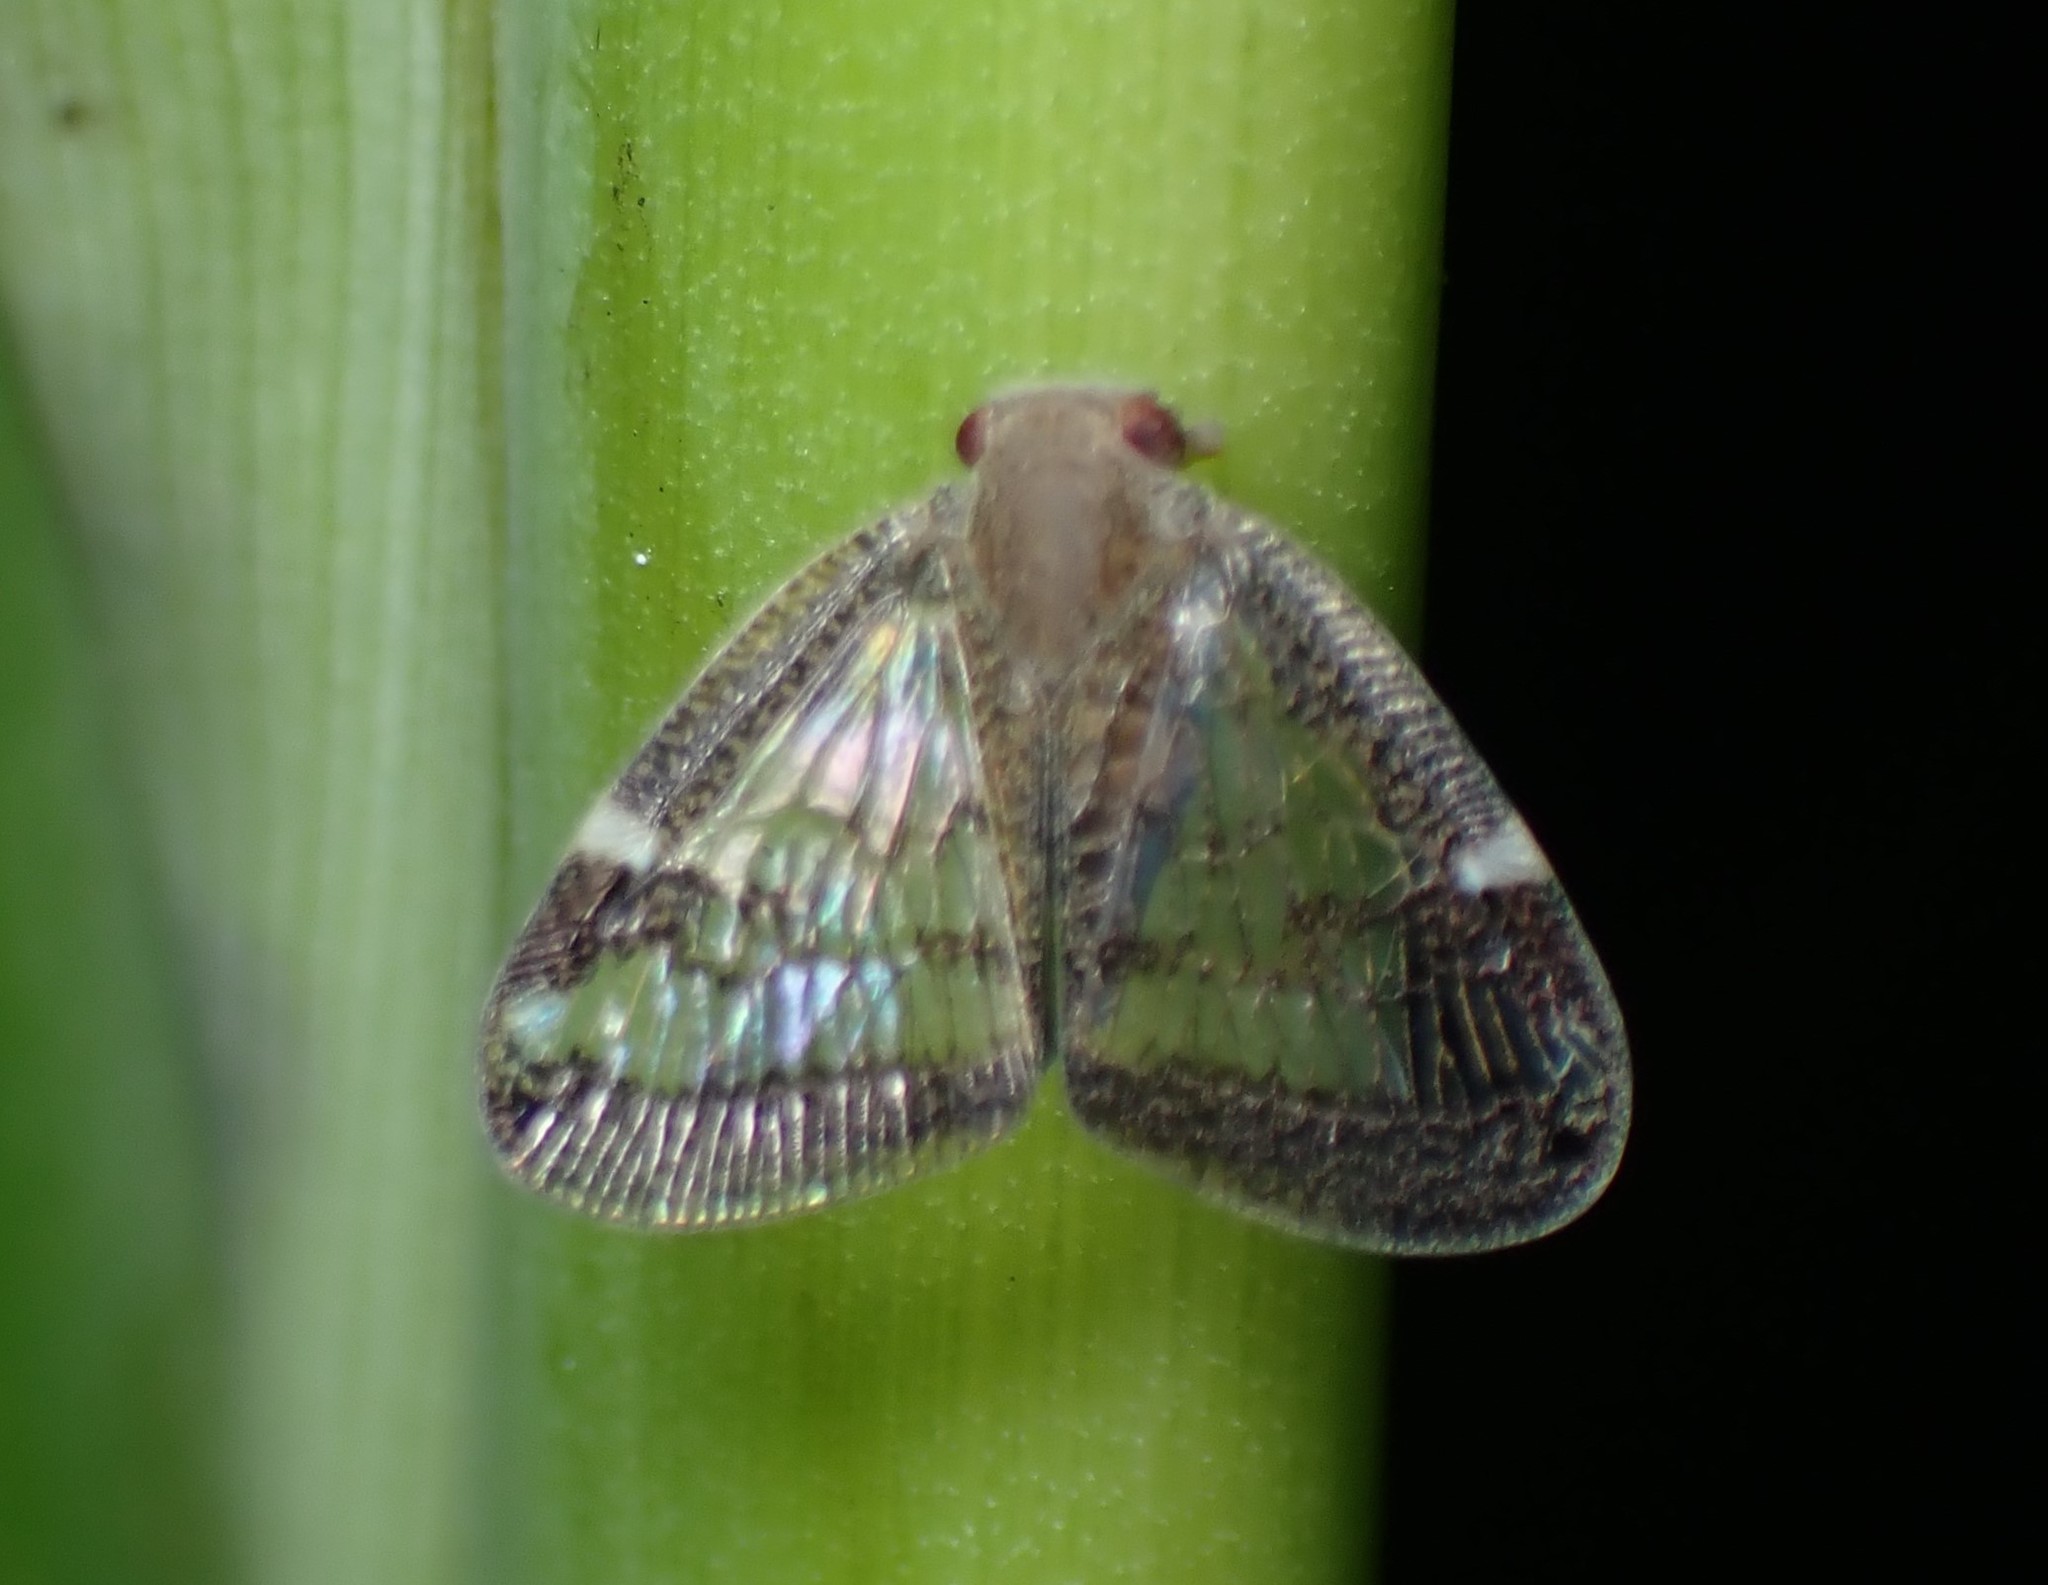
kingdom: Animalia
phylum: Arthropoda
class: Insecta
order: Hemiptera
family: Ricaniidae
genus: Scolypopa
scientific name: Scolypopa australis
